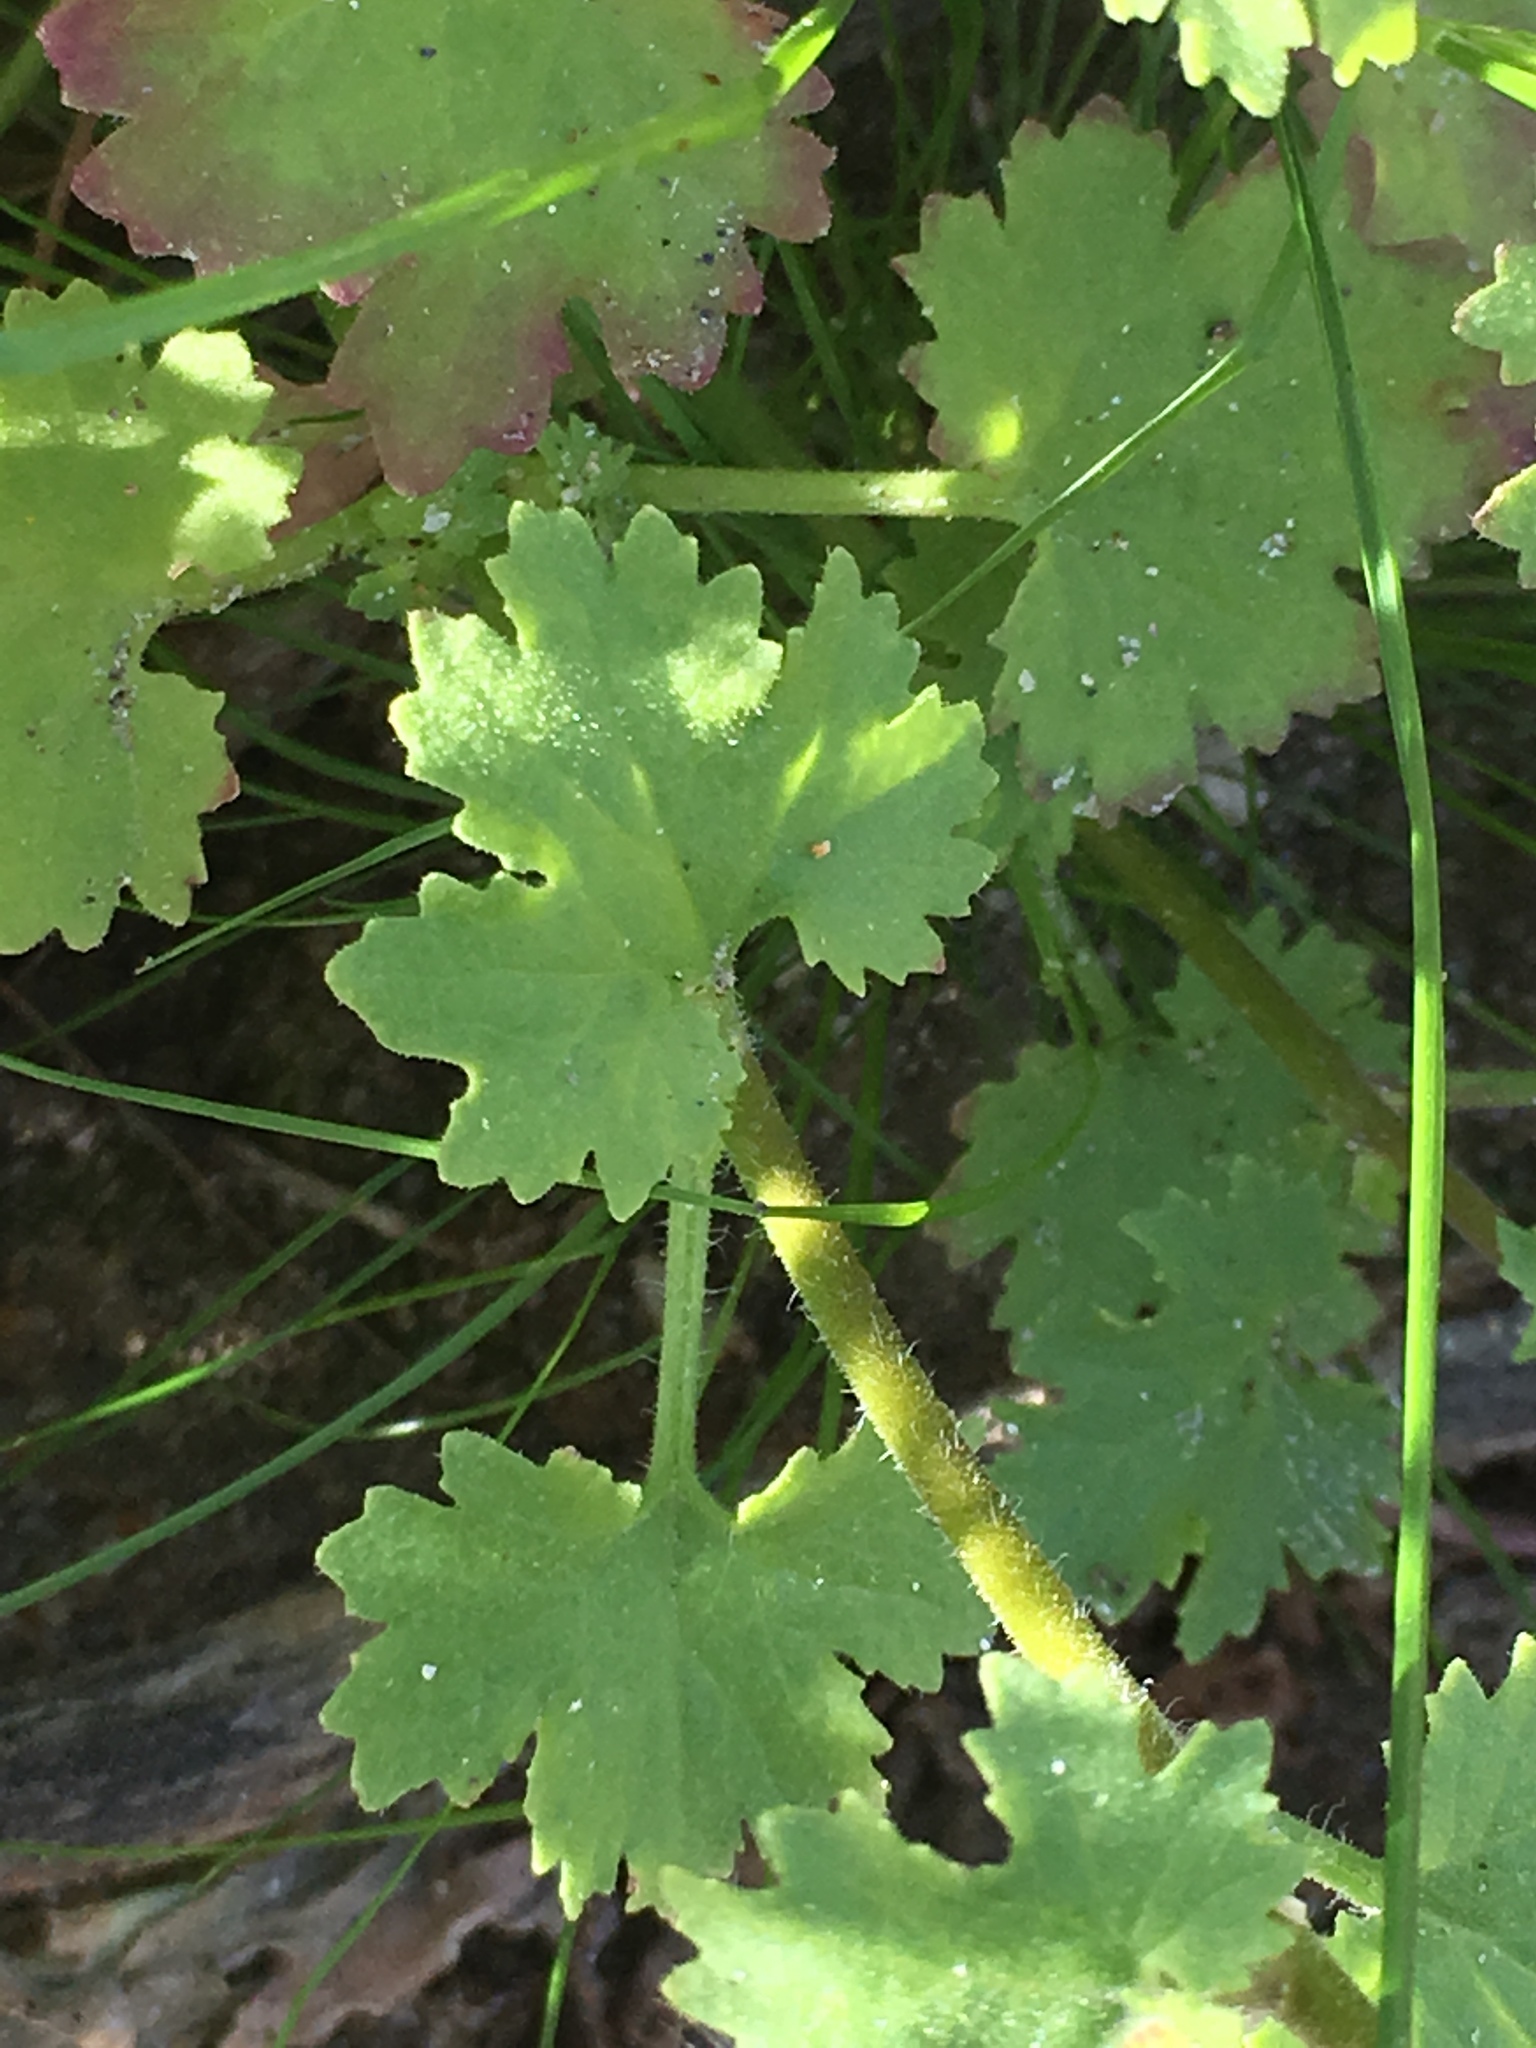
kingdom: Plantae
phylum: Tracheophyta
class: Magnoliopsida
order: Asterales
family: Asteraceae
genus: Laphamia
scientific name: Laphamia emoryi
